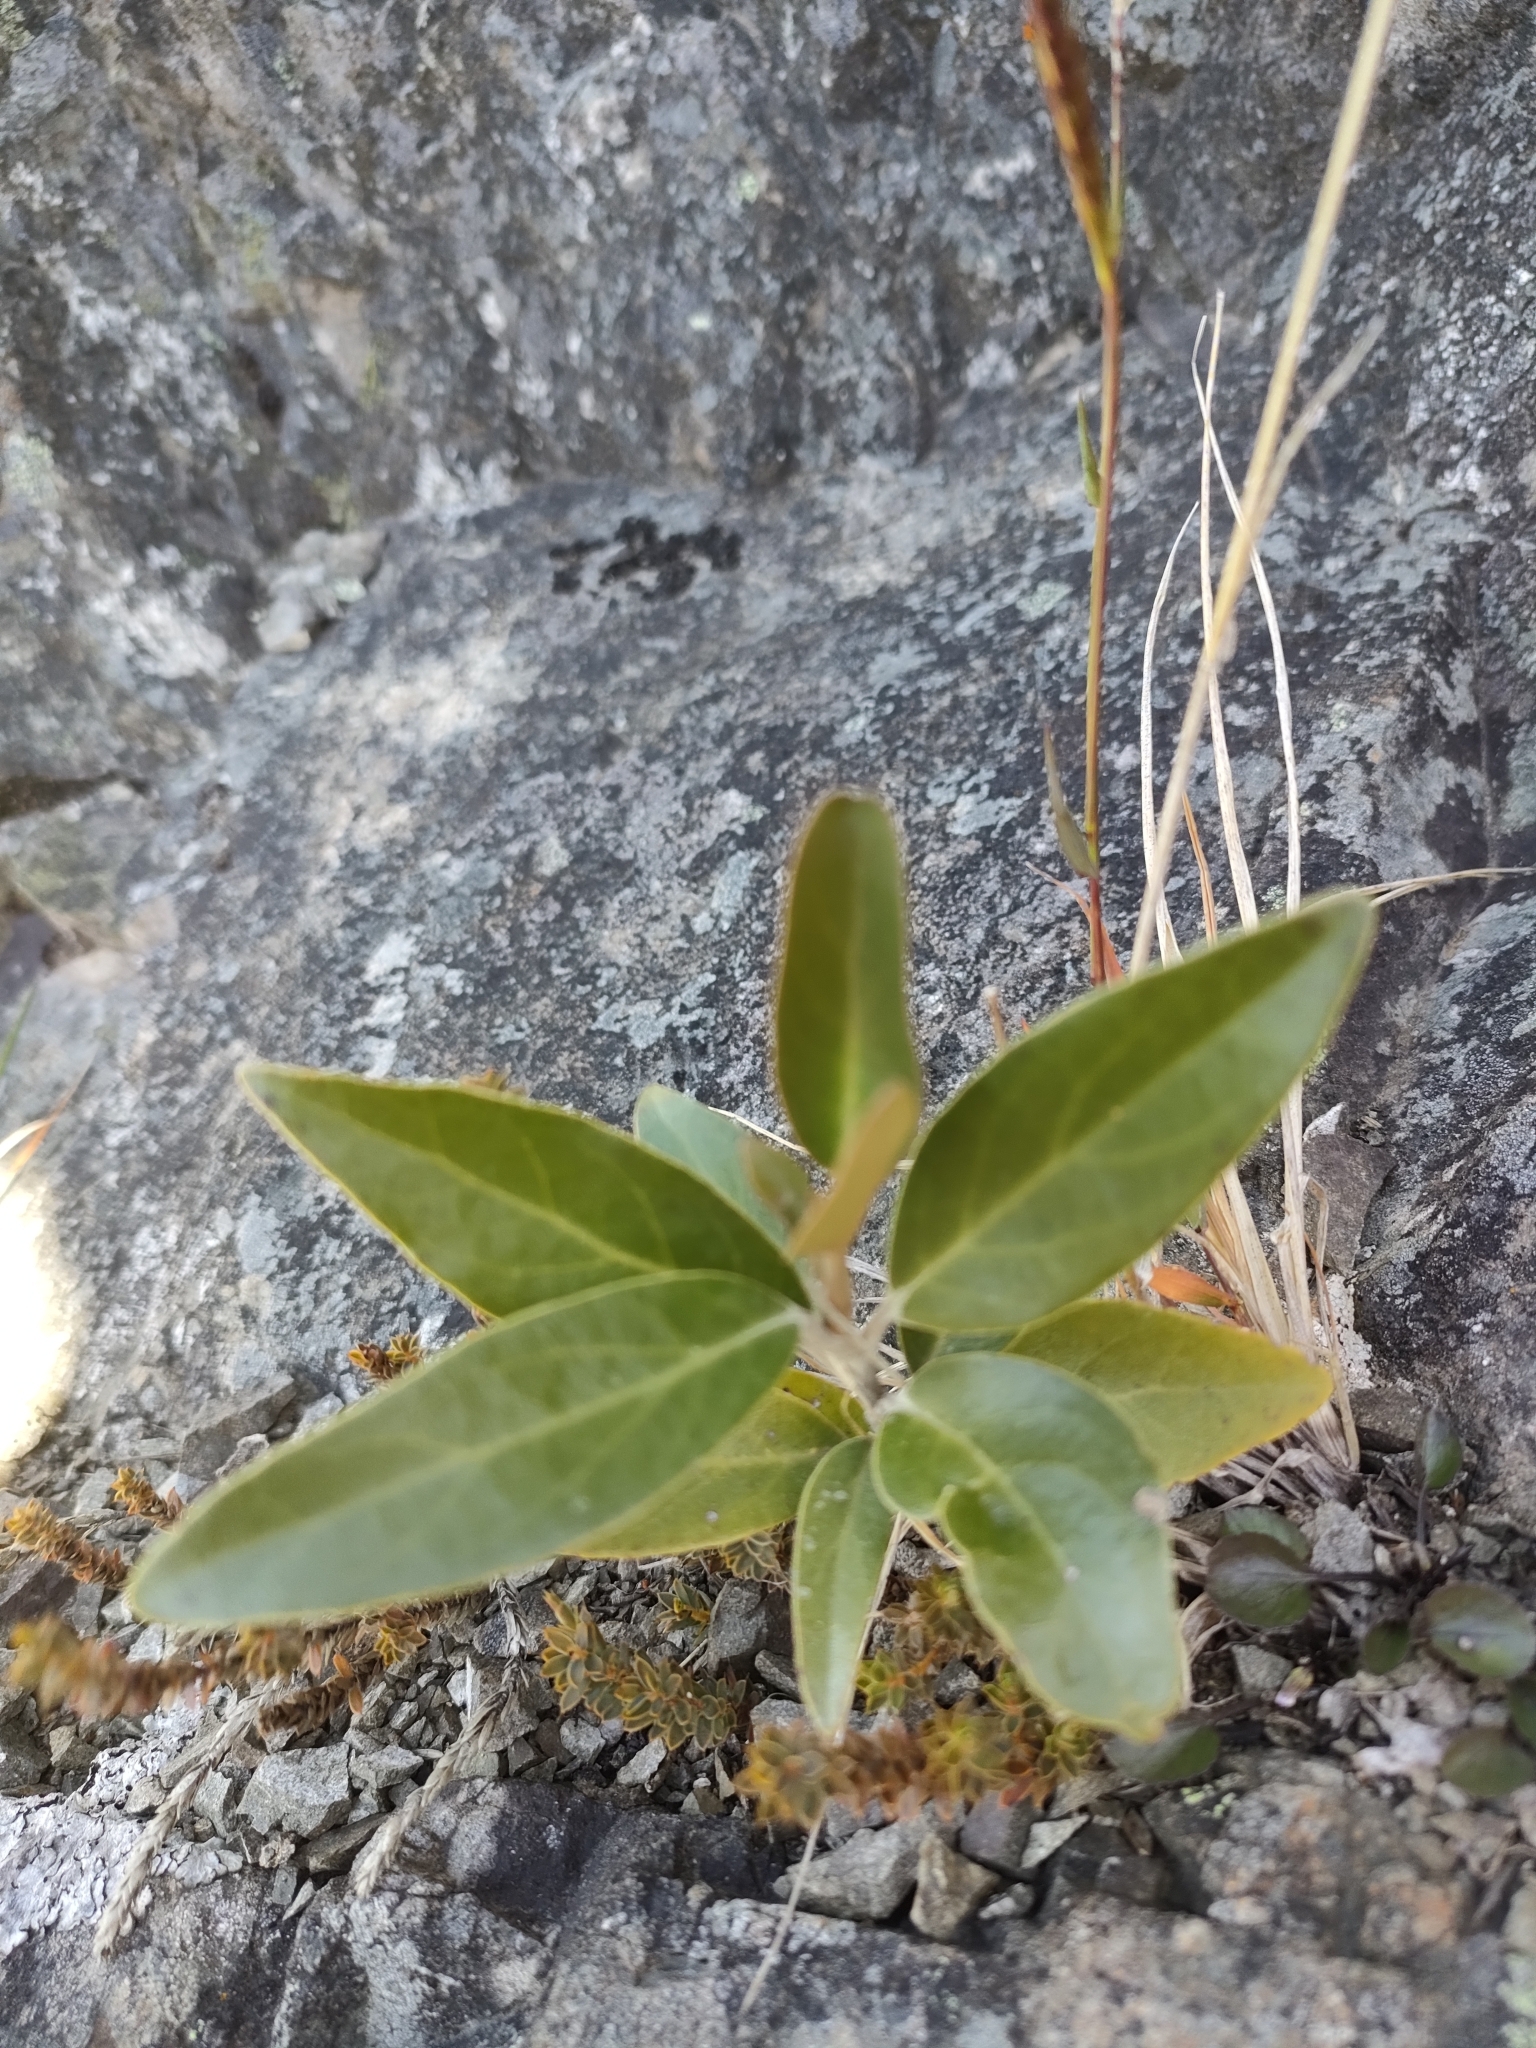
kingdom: Plantae
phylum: Tracheophyta
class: Magnoliopsida
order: Asterales
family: Asteraceae
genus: Olearia
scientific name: Olearia avicenniifolia
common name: Mangrove-leaf daisybush
